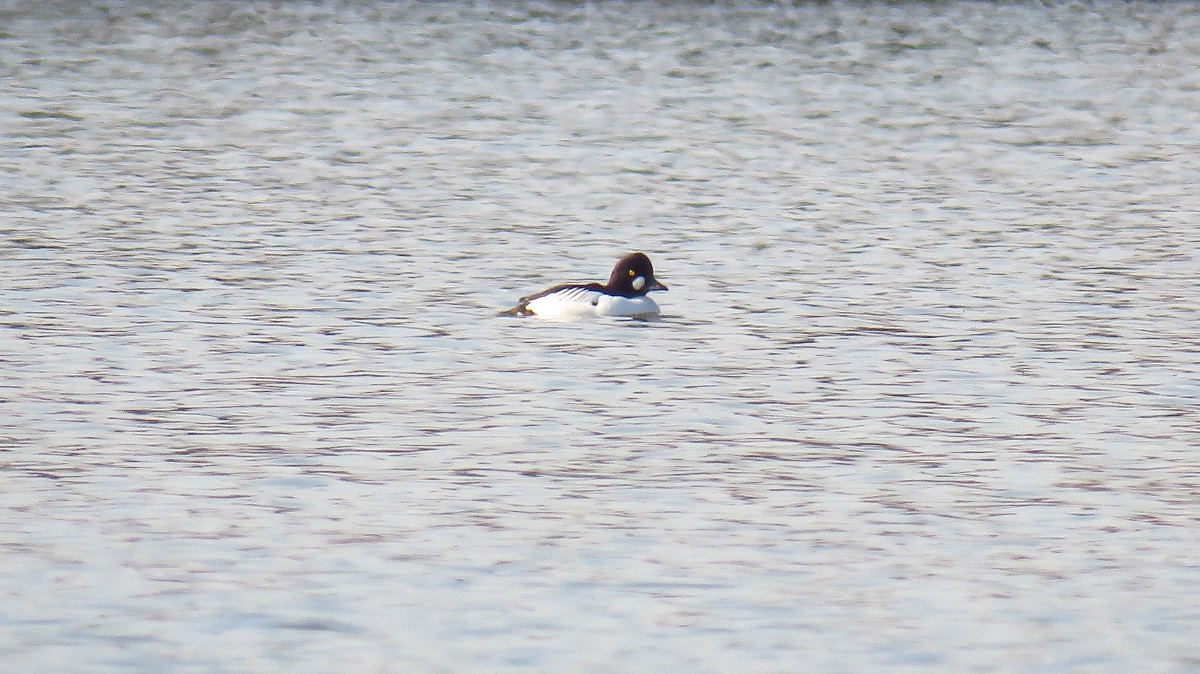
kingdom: Animalia
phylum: Chordata
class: Aves
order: Anseriformes
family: Anatidae
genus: Bucephala
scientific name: Bucephala clangula
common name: Common goldeneye
